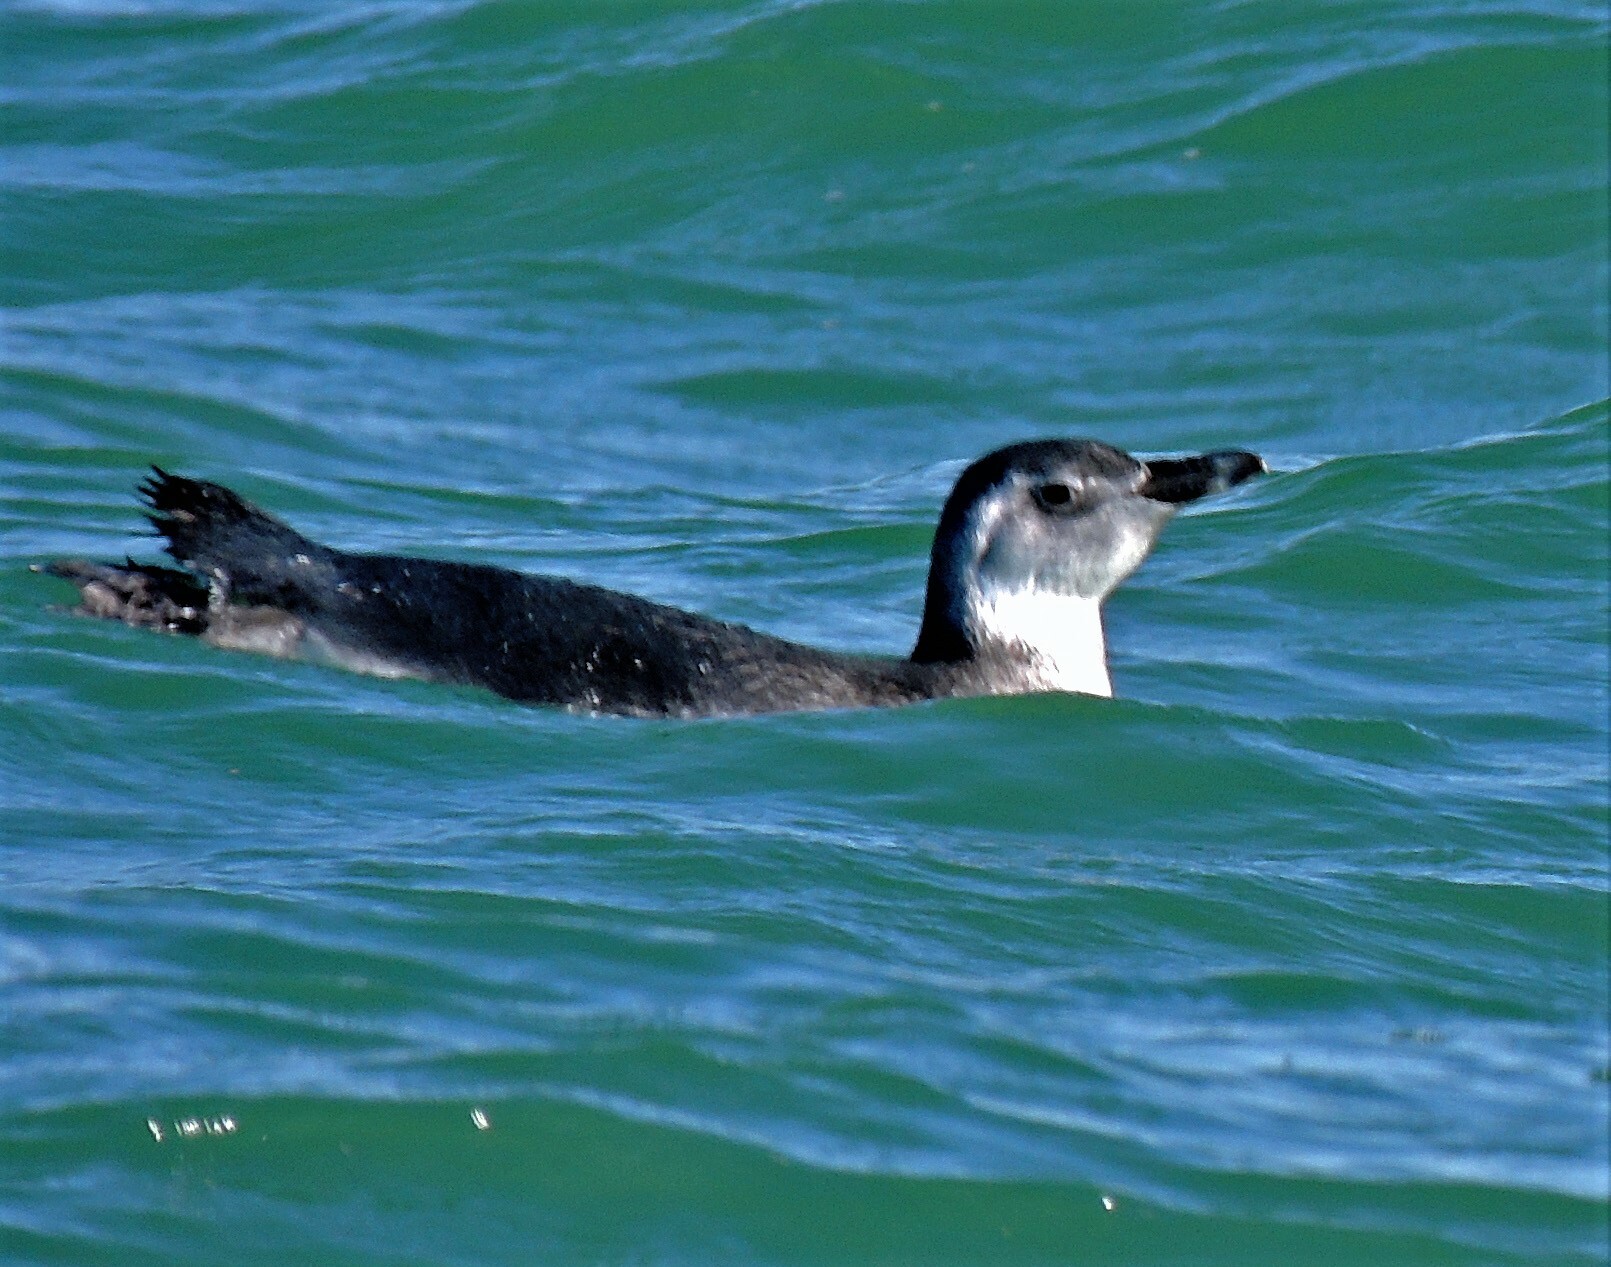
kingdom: Animalia
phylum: Chordata
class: Aves
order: Sphenisciformes
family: Spheniscidae
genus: Spheniscus
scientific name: Spheniscus magellanicus
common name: Magellanic penguin
